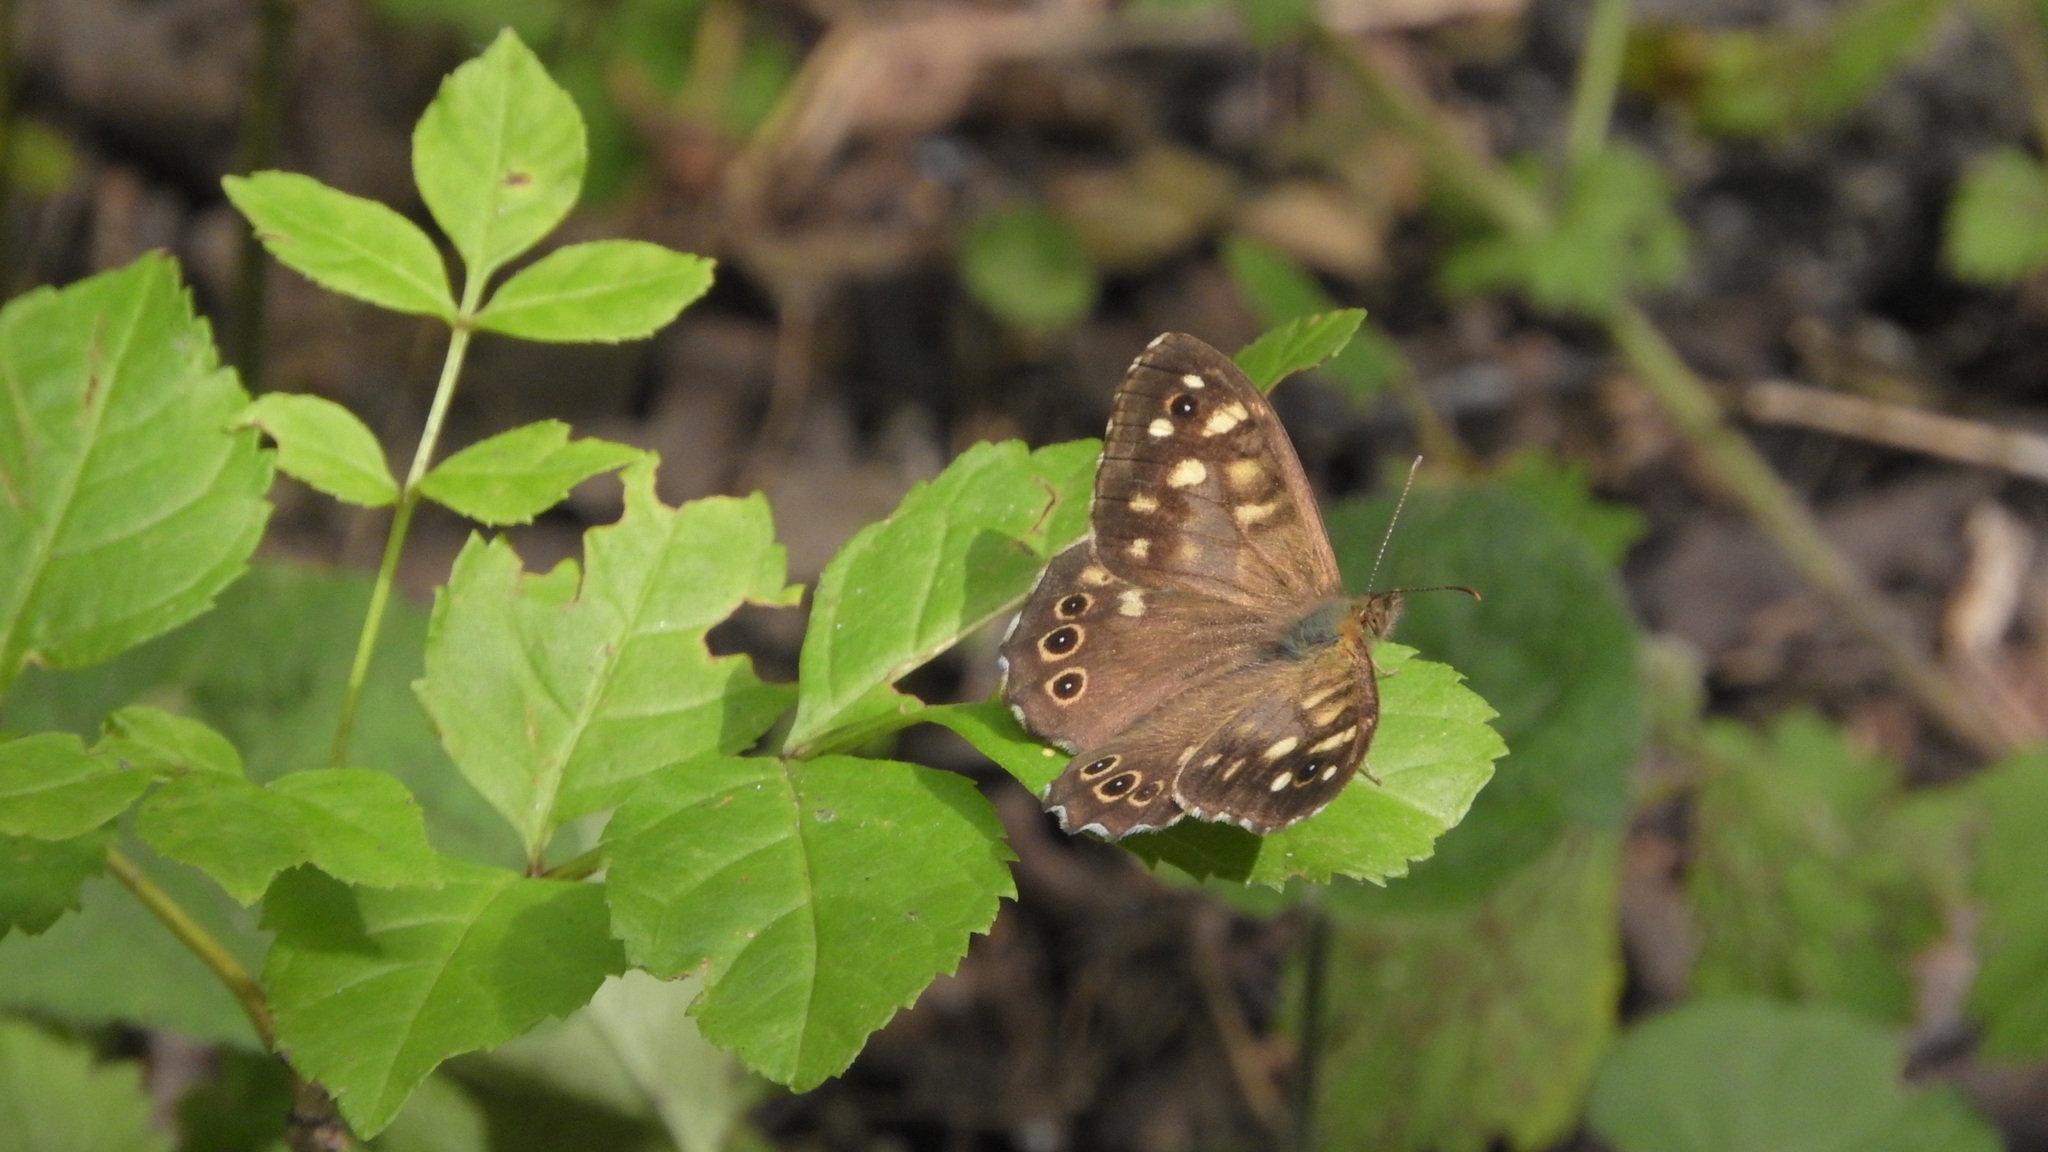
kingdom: Animalia
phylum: Arthropoda
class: Insecta
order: Lepidoptera
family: Nymphalidae
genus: Pararge
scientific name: Pararge aegeria
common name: Speckled wood
